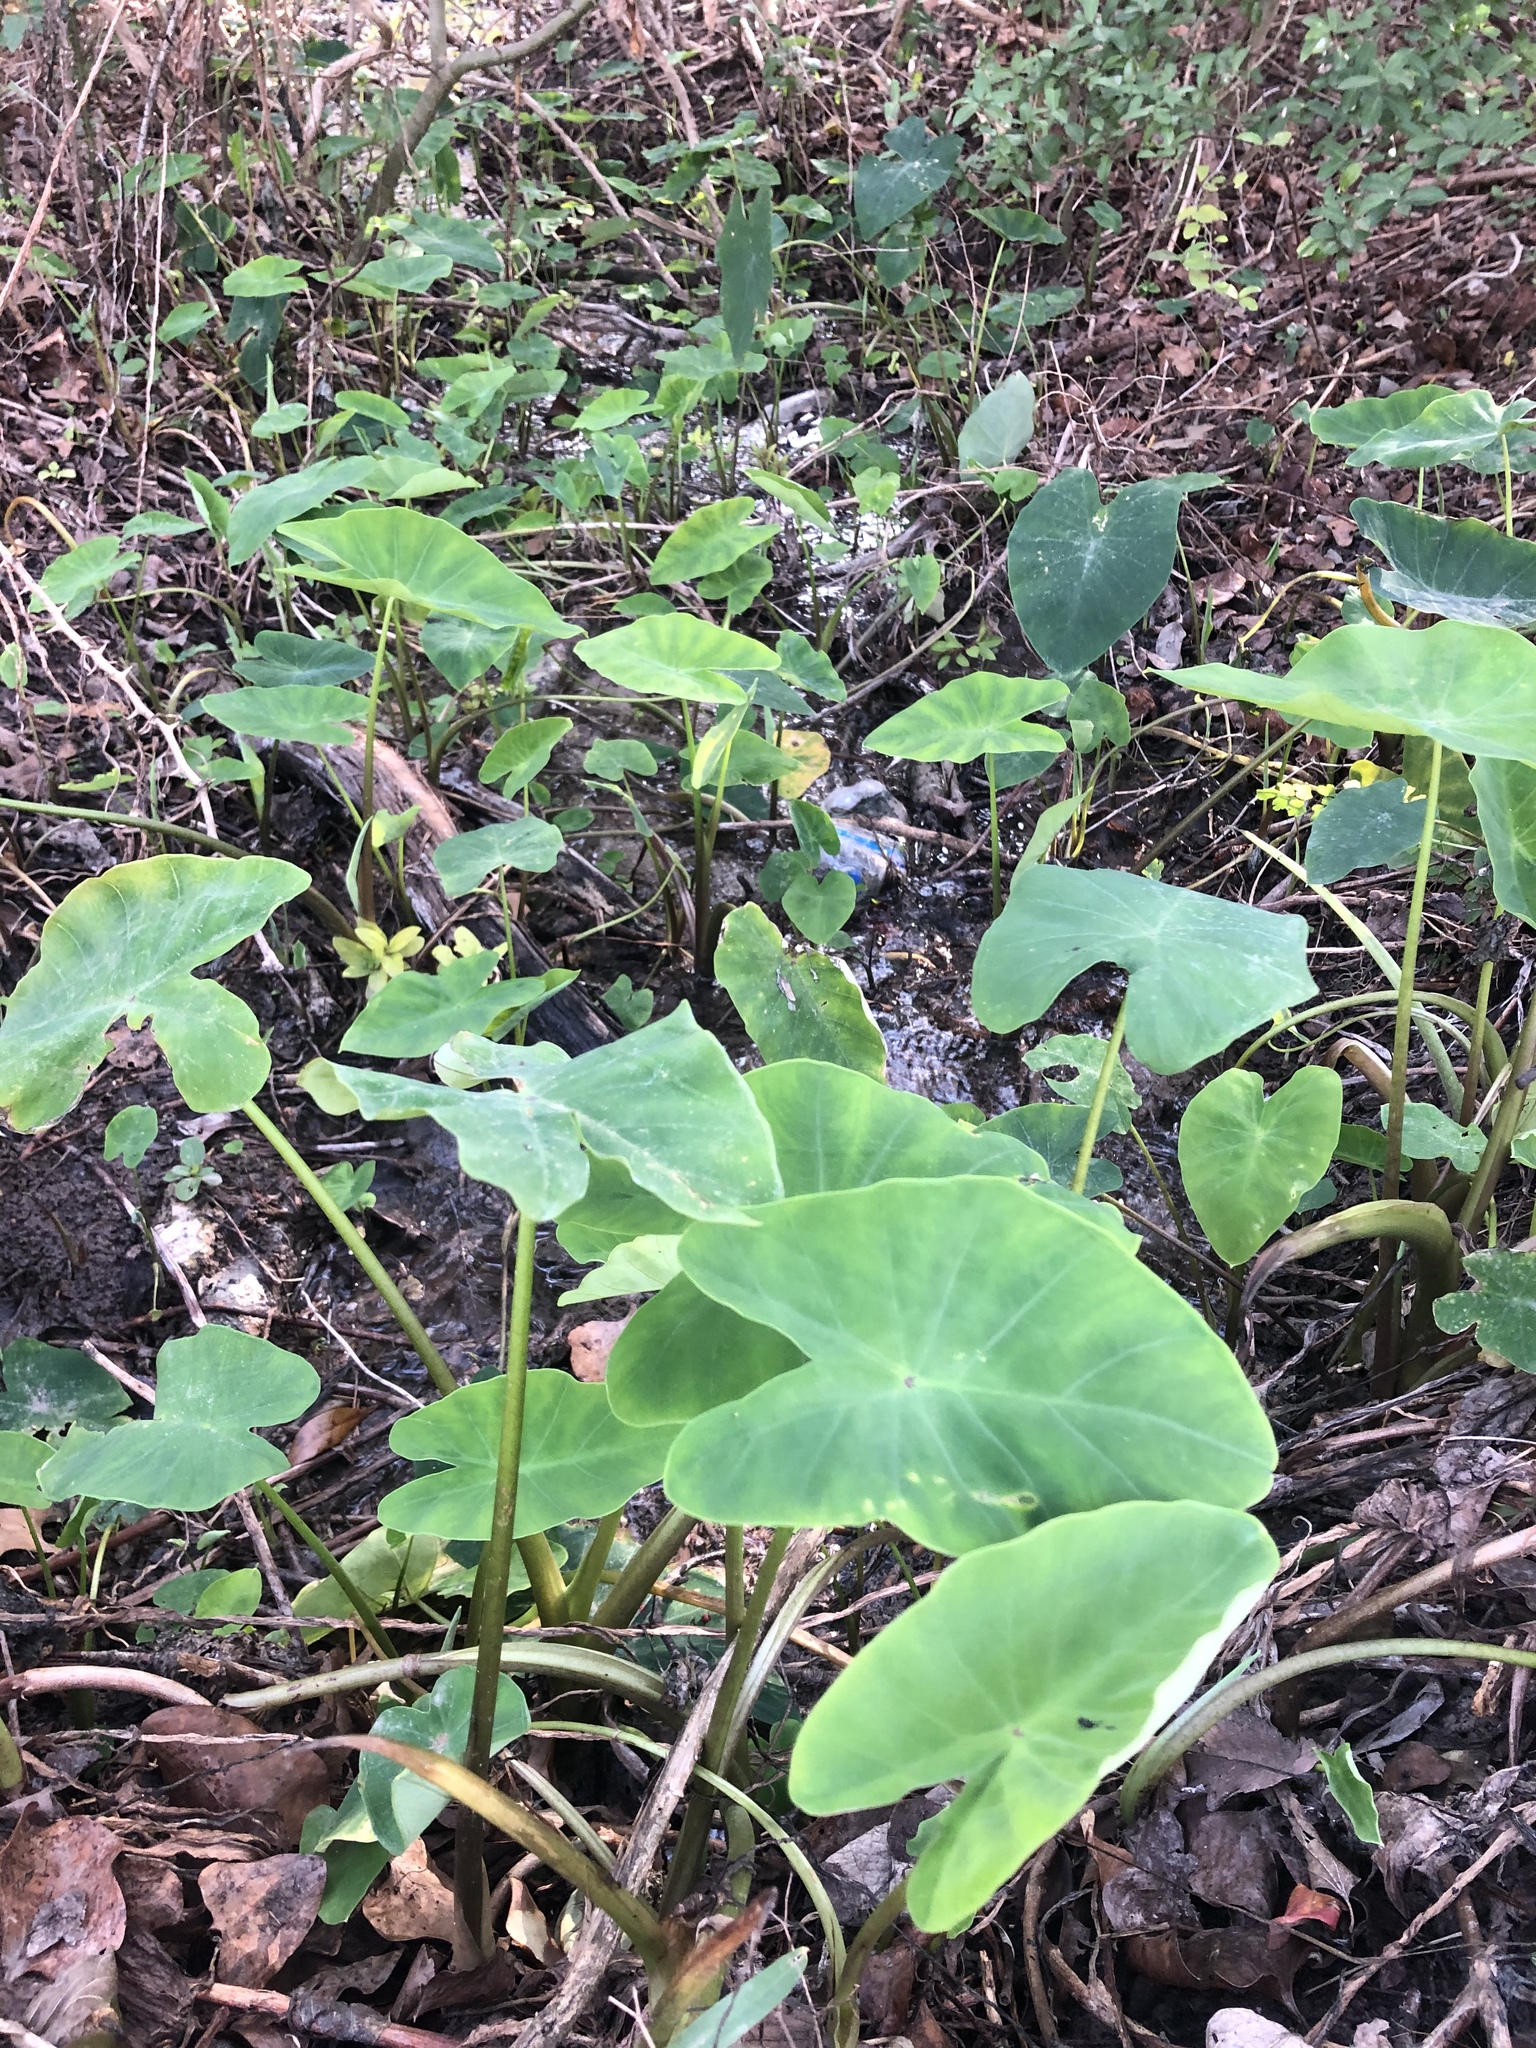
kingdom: Plantae
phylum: Tracheophyta
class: Liliopsida
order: Alismatales
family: Araceae
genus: Colocasia
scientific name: Colocasia esculenta
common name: Taro
